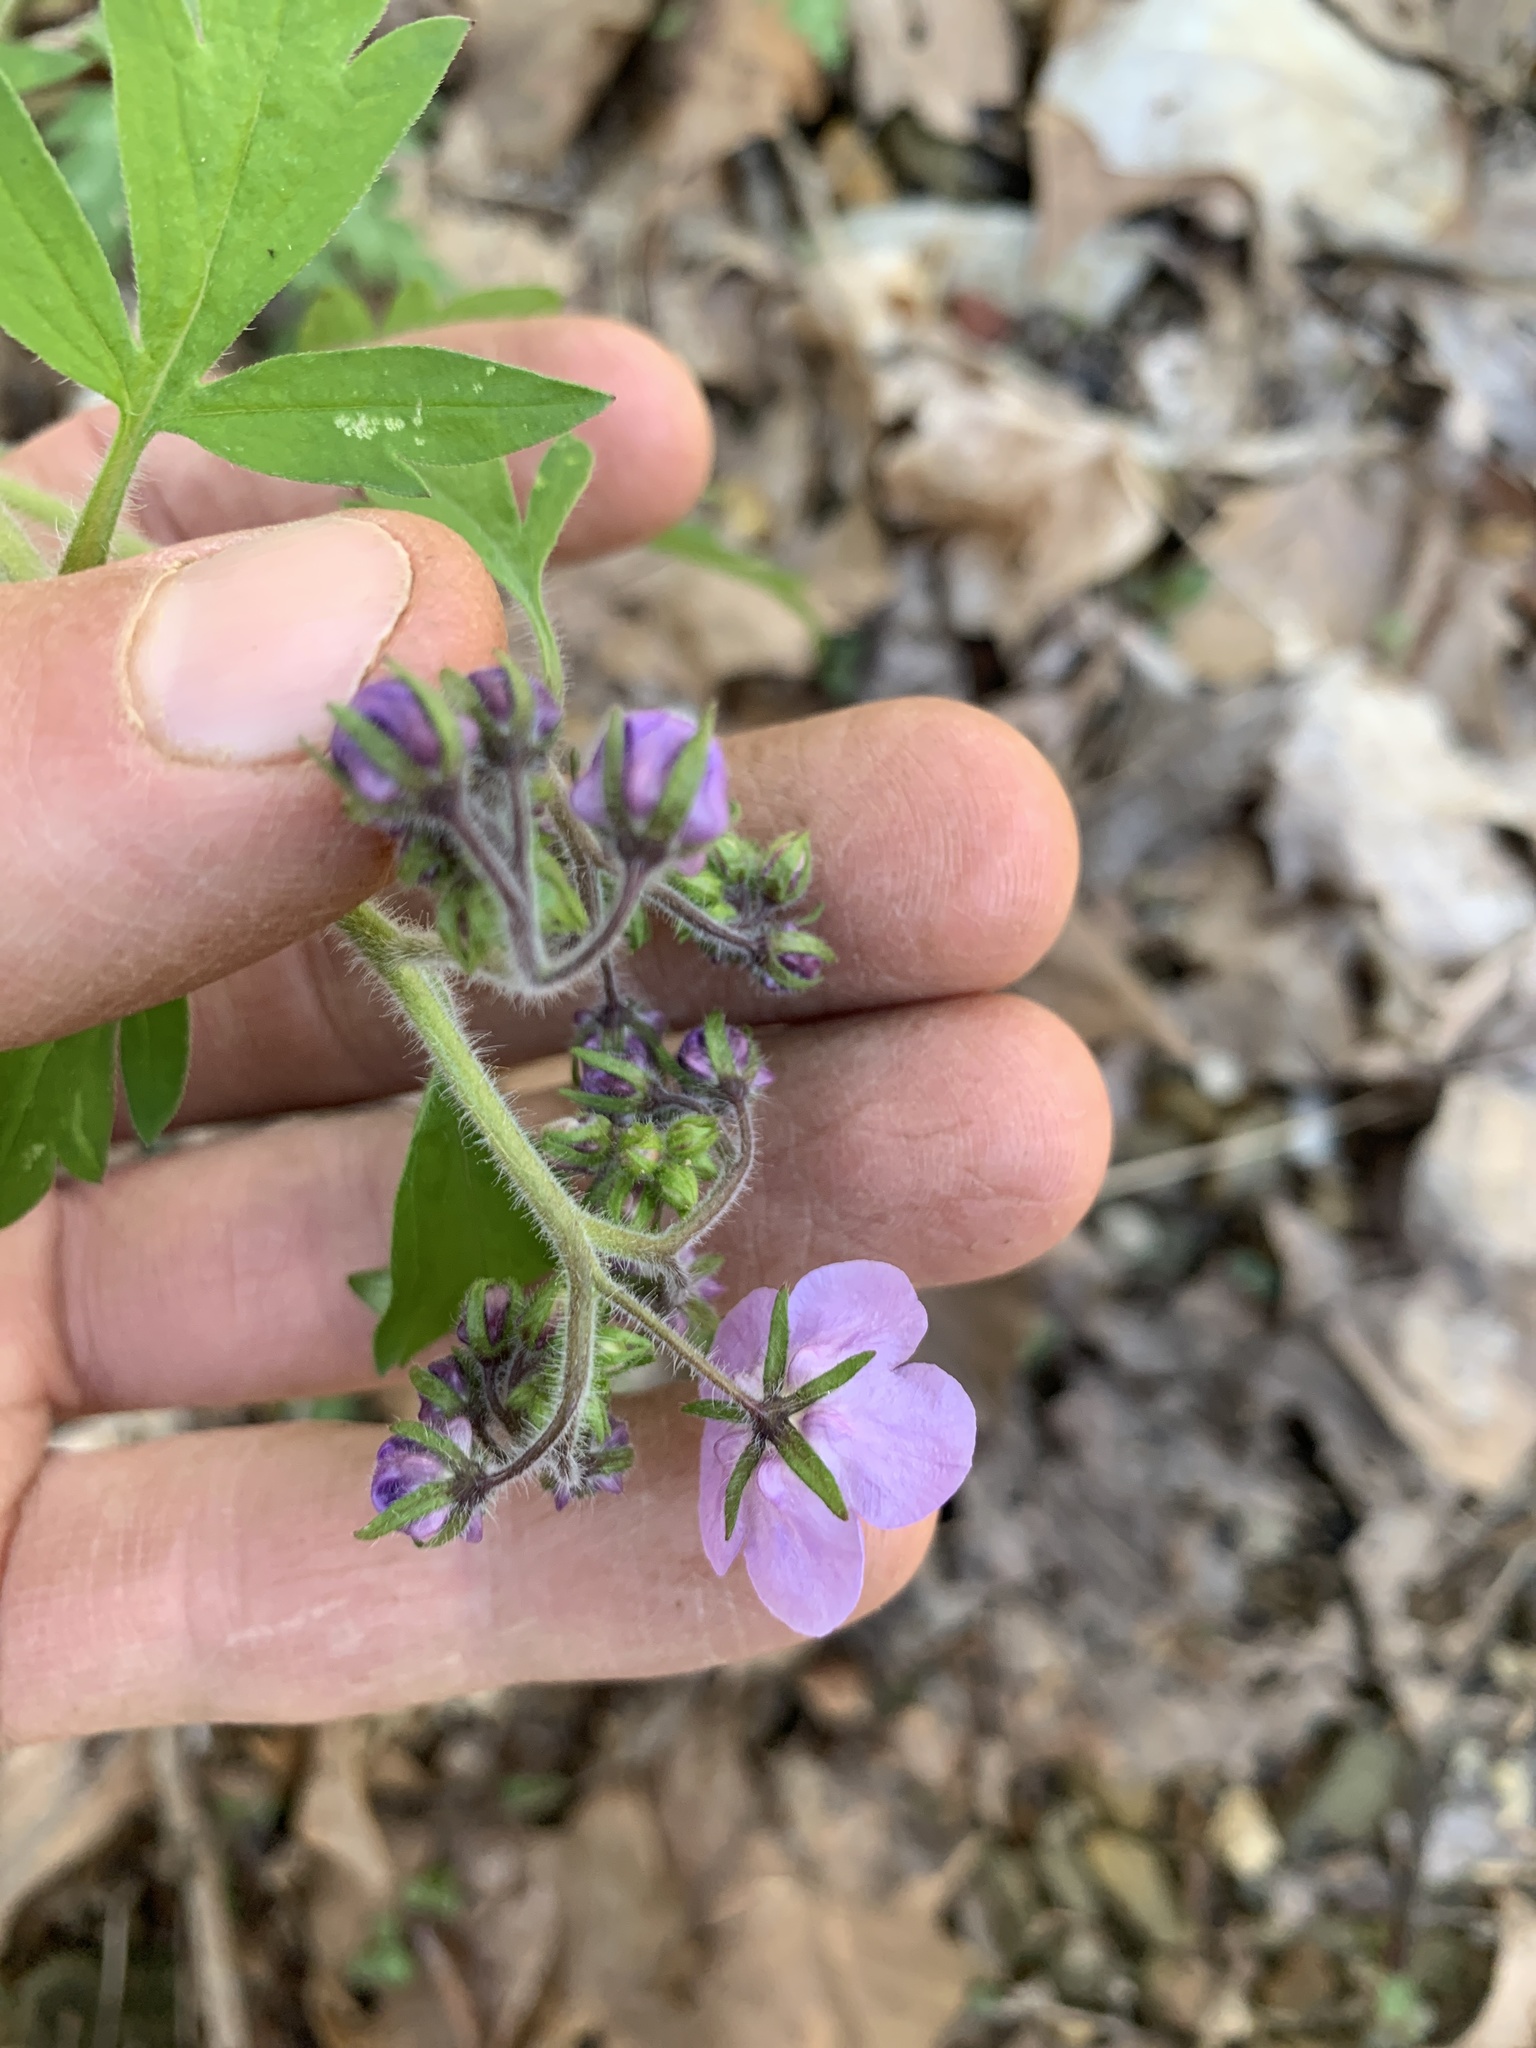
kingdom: Plantae
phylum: Tracheophyta
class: Magnoliopsida
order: Boraginales
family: Hydrophyllaceae
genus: Phacelia
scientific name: Phacelia bipinnatifida
